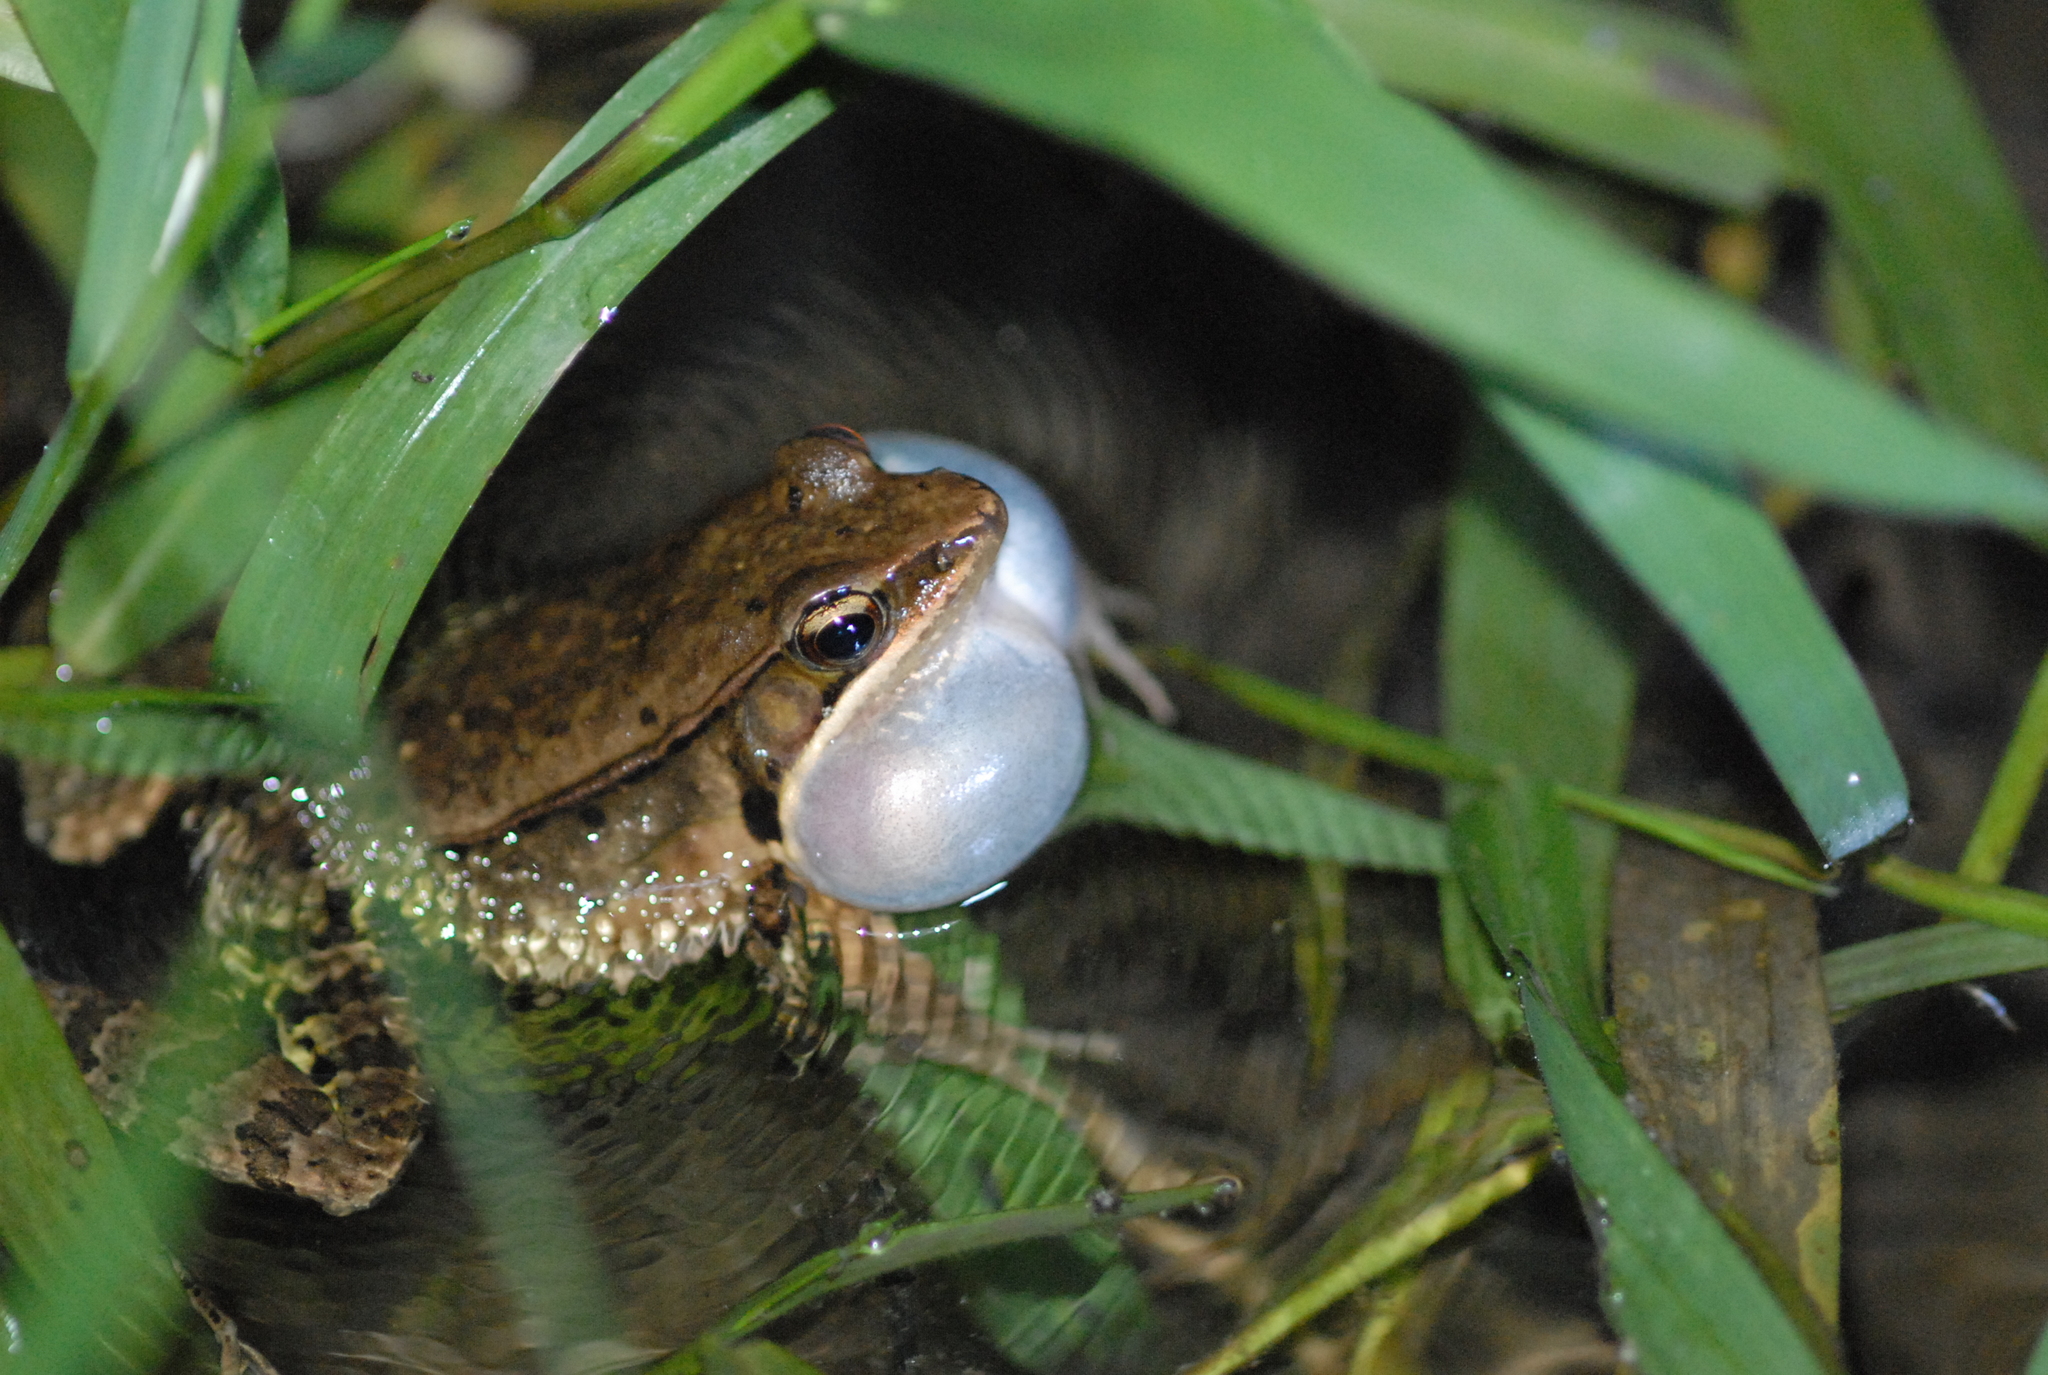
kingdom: Animalia
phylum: Chordata
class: Amphibia
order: Anura
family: Ranidae
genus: Nidirana
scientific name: Nidirana adenopleura
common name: Olive frog
